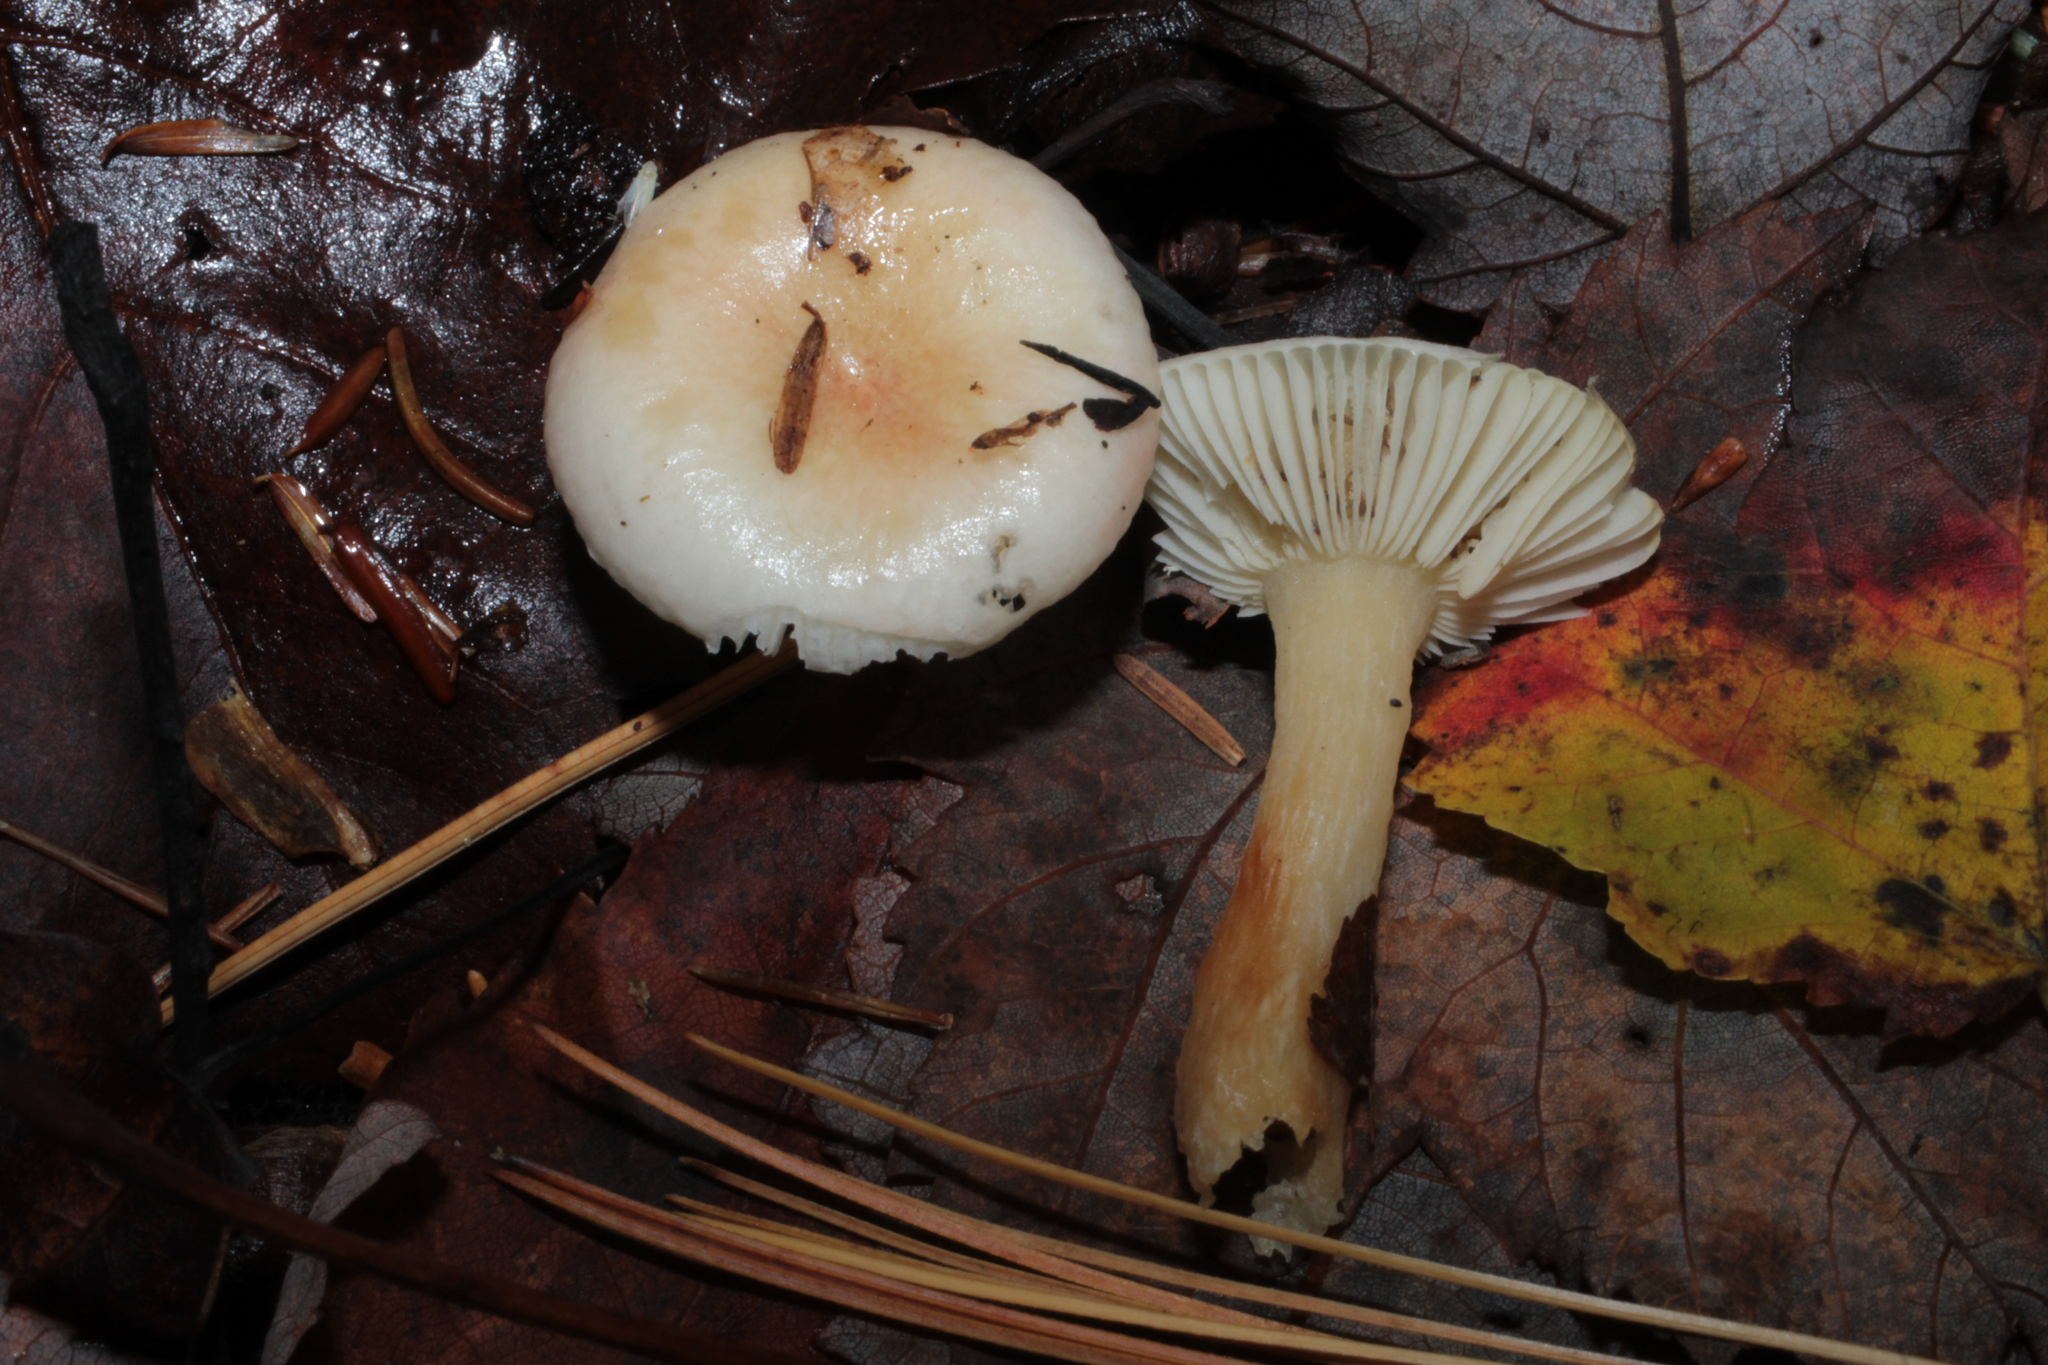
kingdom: Fungi
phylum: Basidiomycota
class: Agaricomycetes
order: Agaricales
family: Hygrophoraceae
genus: Hygrophorus
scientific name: Hygrophorus ligatus
